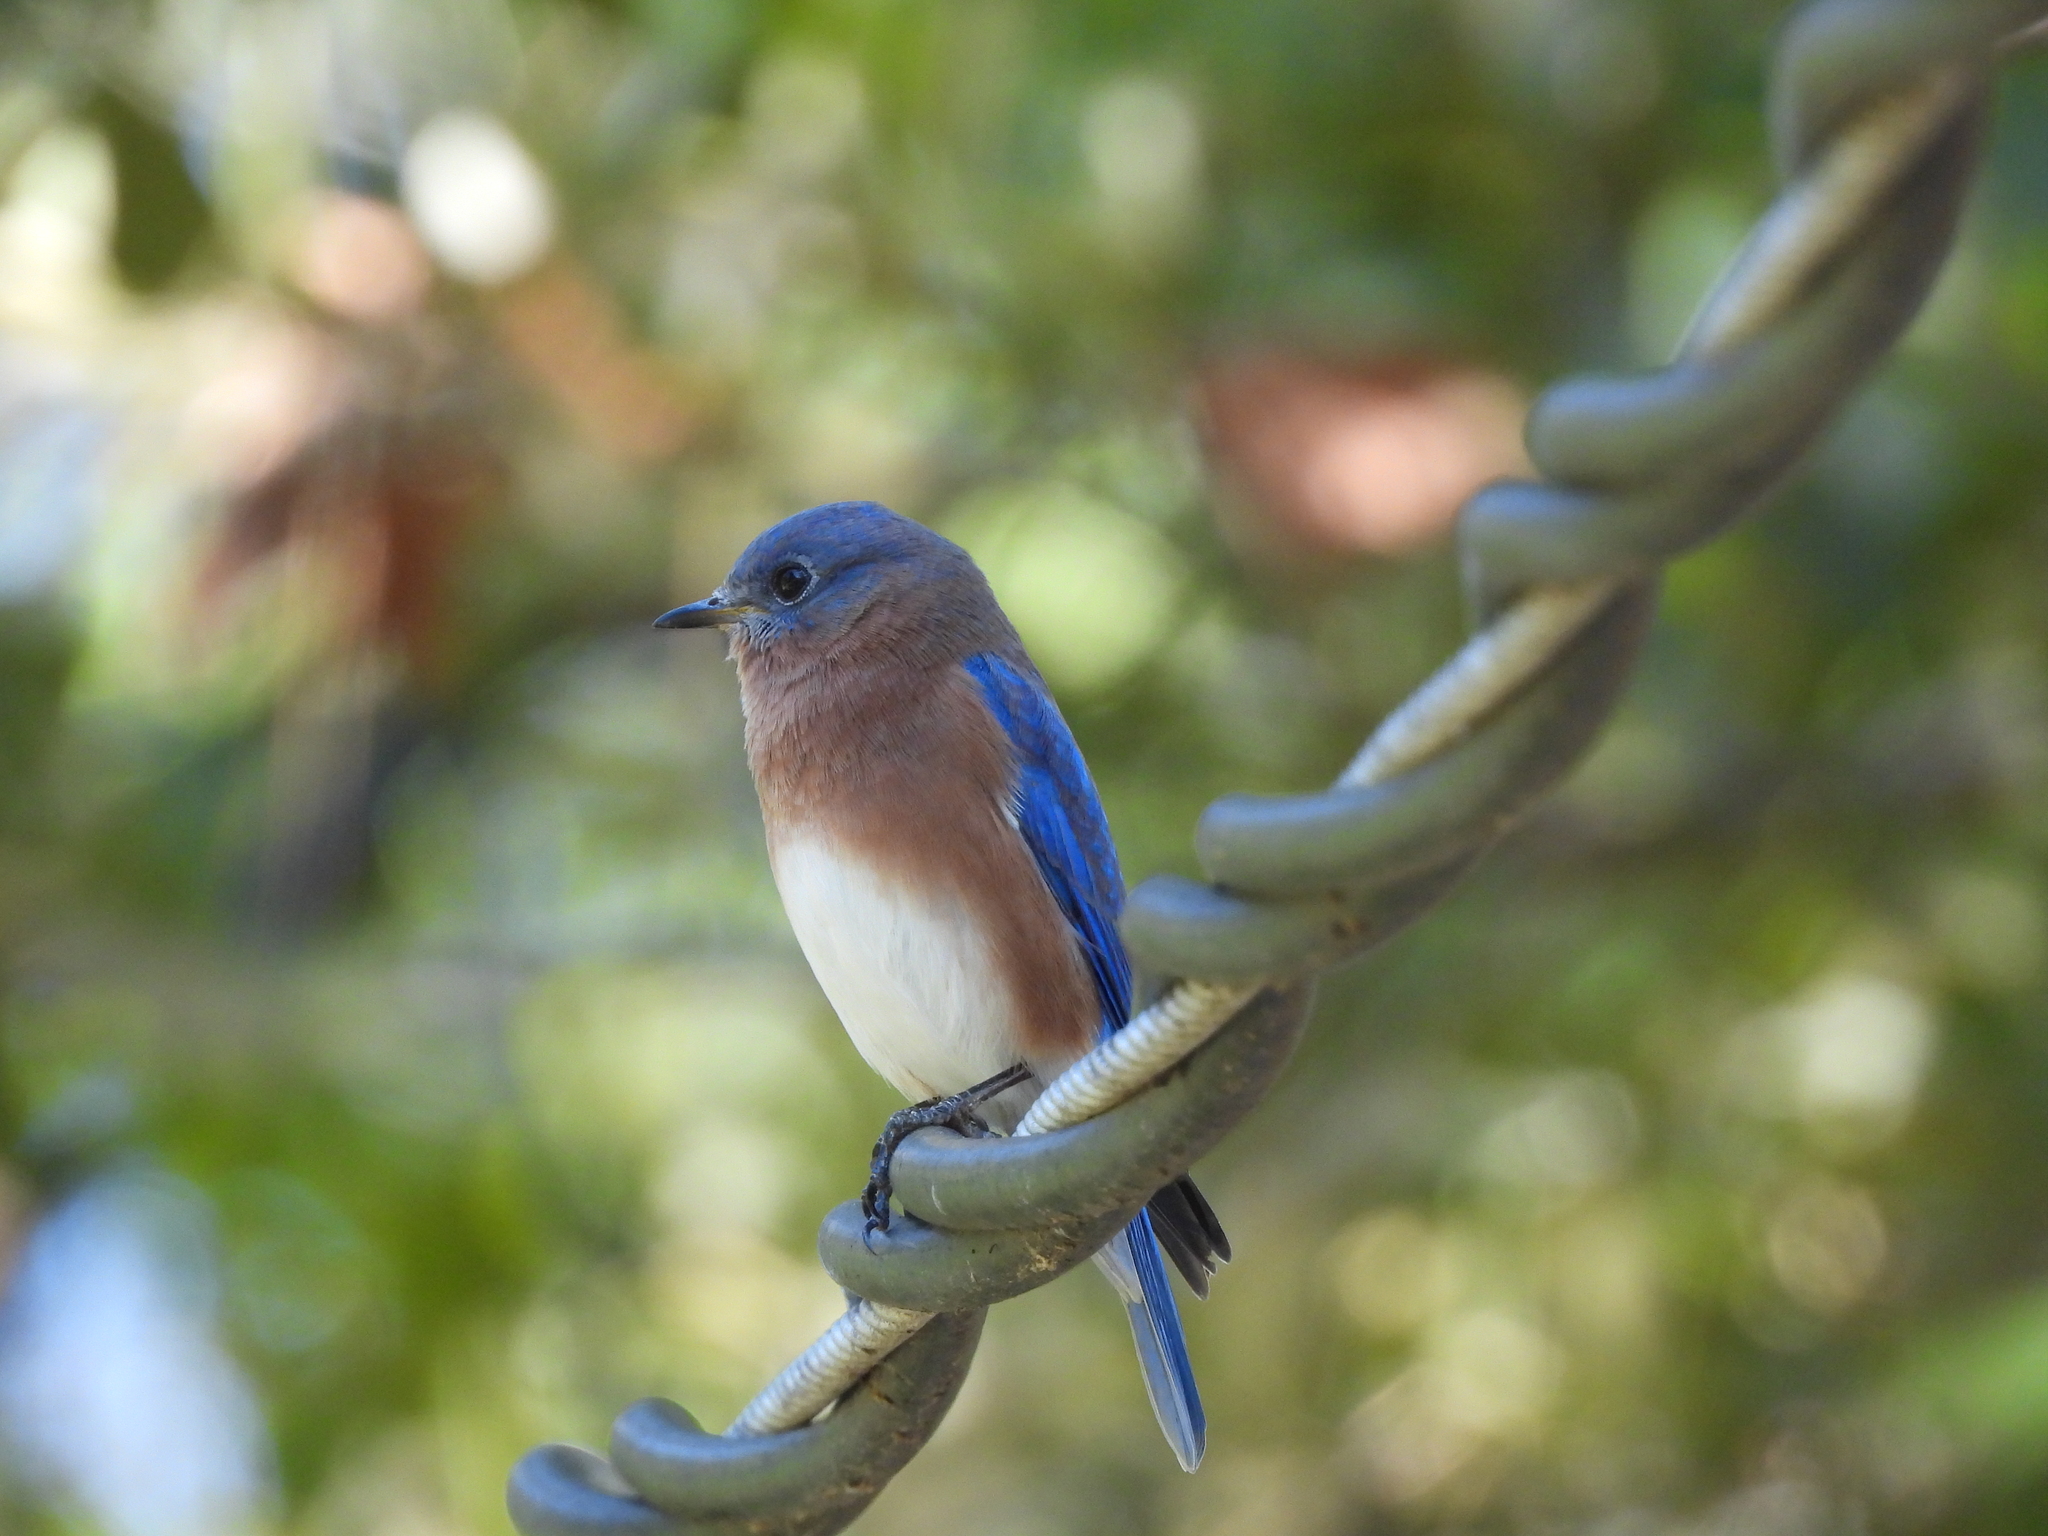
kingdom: Animalia
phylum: Chordata
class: Aves
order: Passeriformes
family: Turdidae
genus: Sialia
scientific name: Sialia sialis
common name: Eastern bluebird
